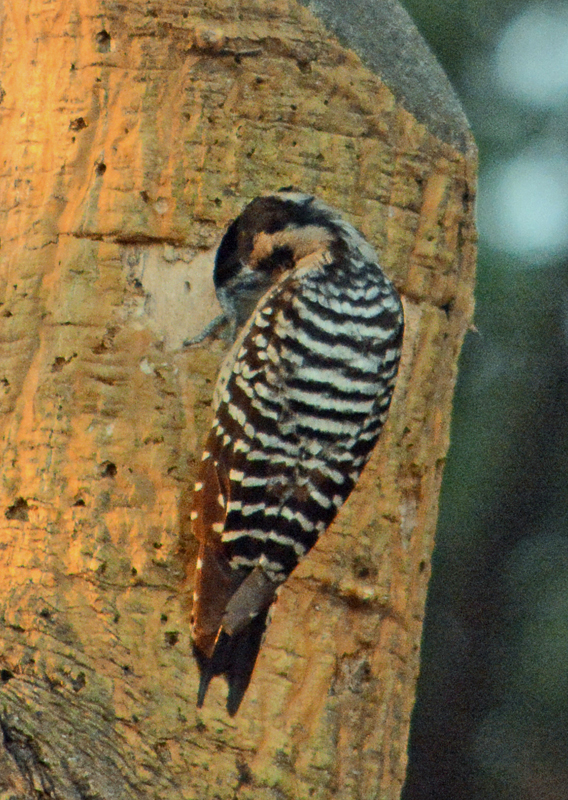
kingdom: Animalia
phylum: Chordata
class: Aves
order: Piciformes
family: Picidae
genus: Dryobates
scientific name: Dryobates scalaris
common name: Ladder-backed woodpecker
